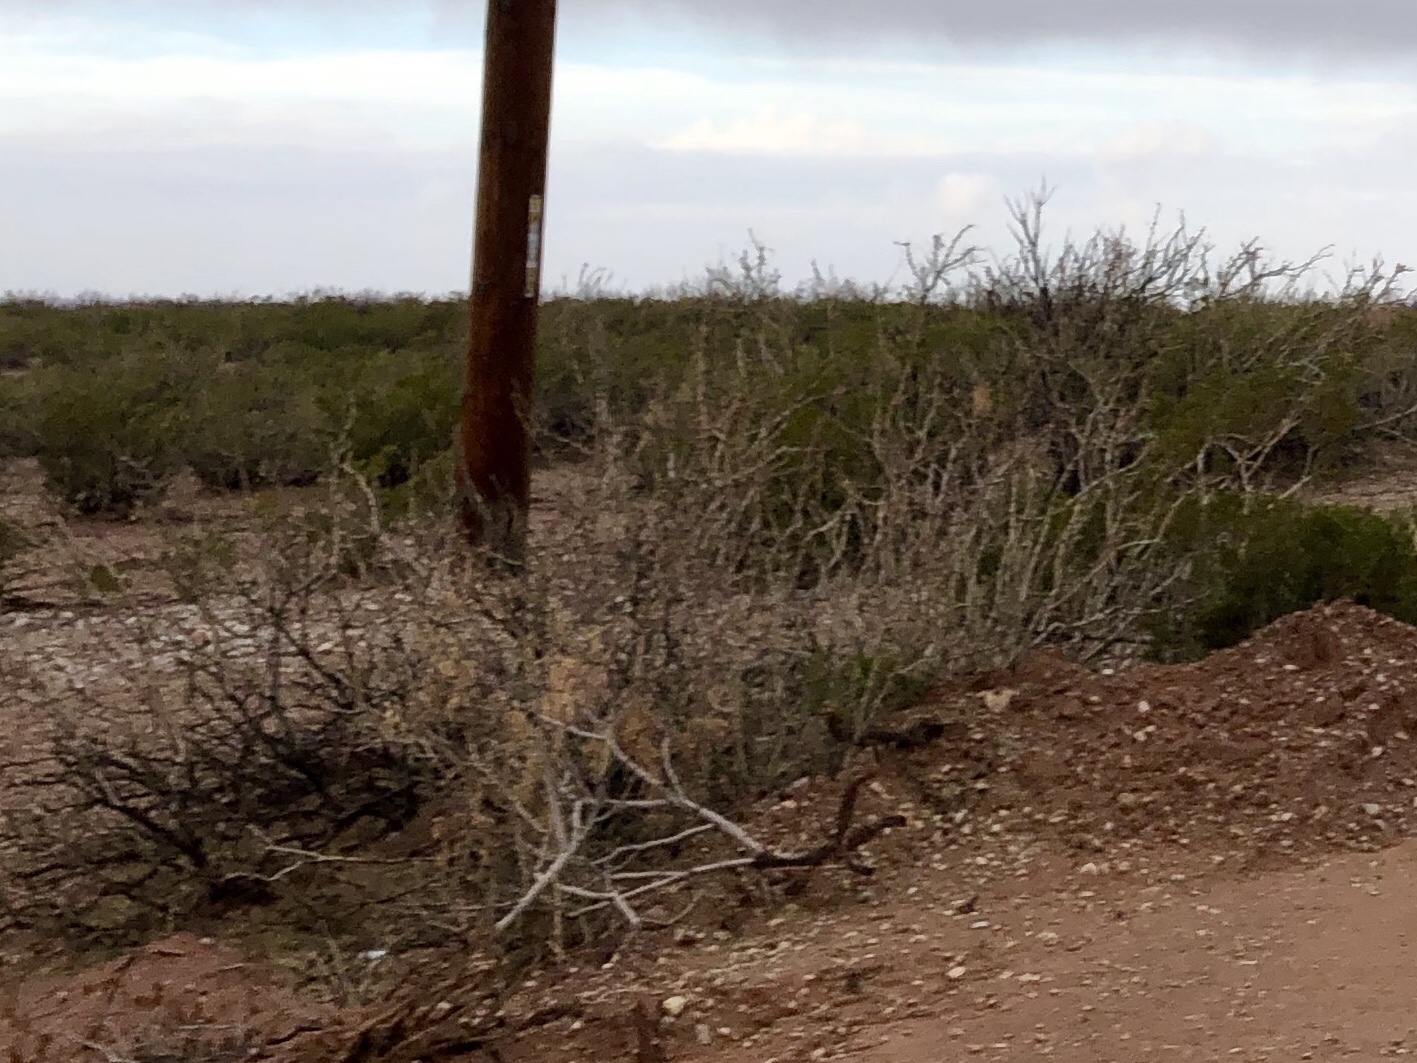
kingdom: Plantae
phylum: Tracheophyta
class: Magnoliopsida
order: Fabales
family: Fabaceae
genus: Prosopis
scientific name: Prosopis glandulosa
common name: Honey mesquite
